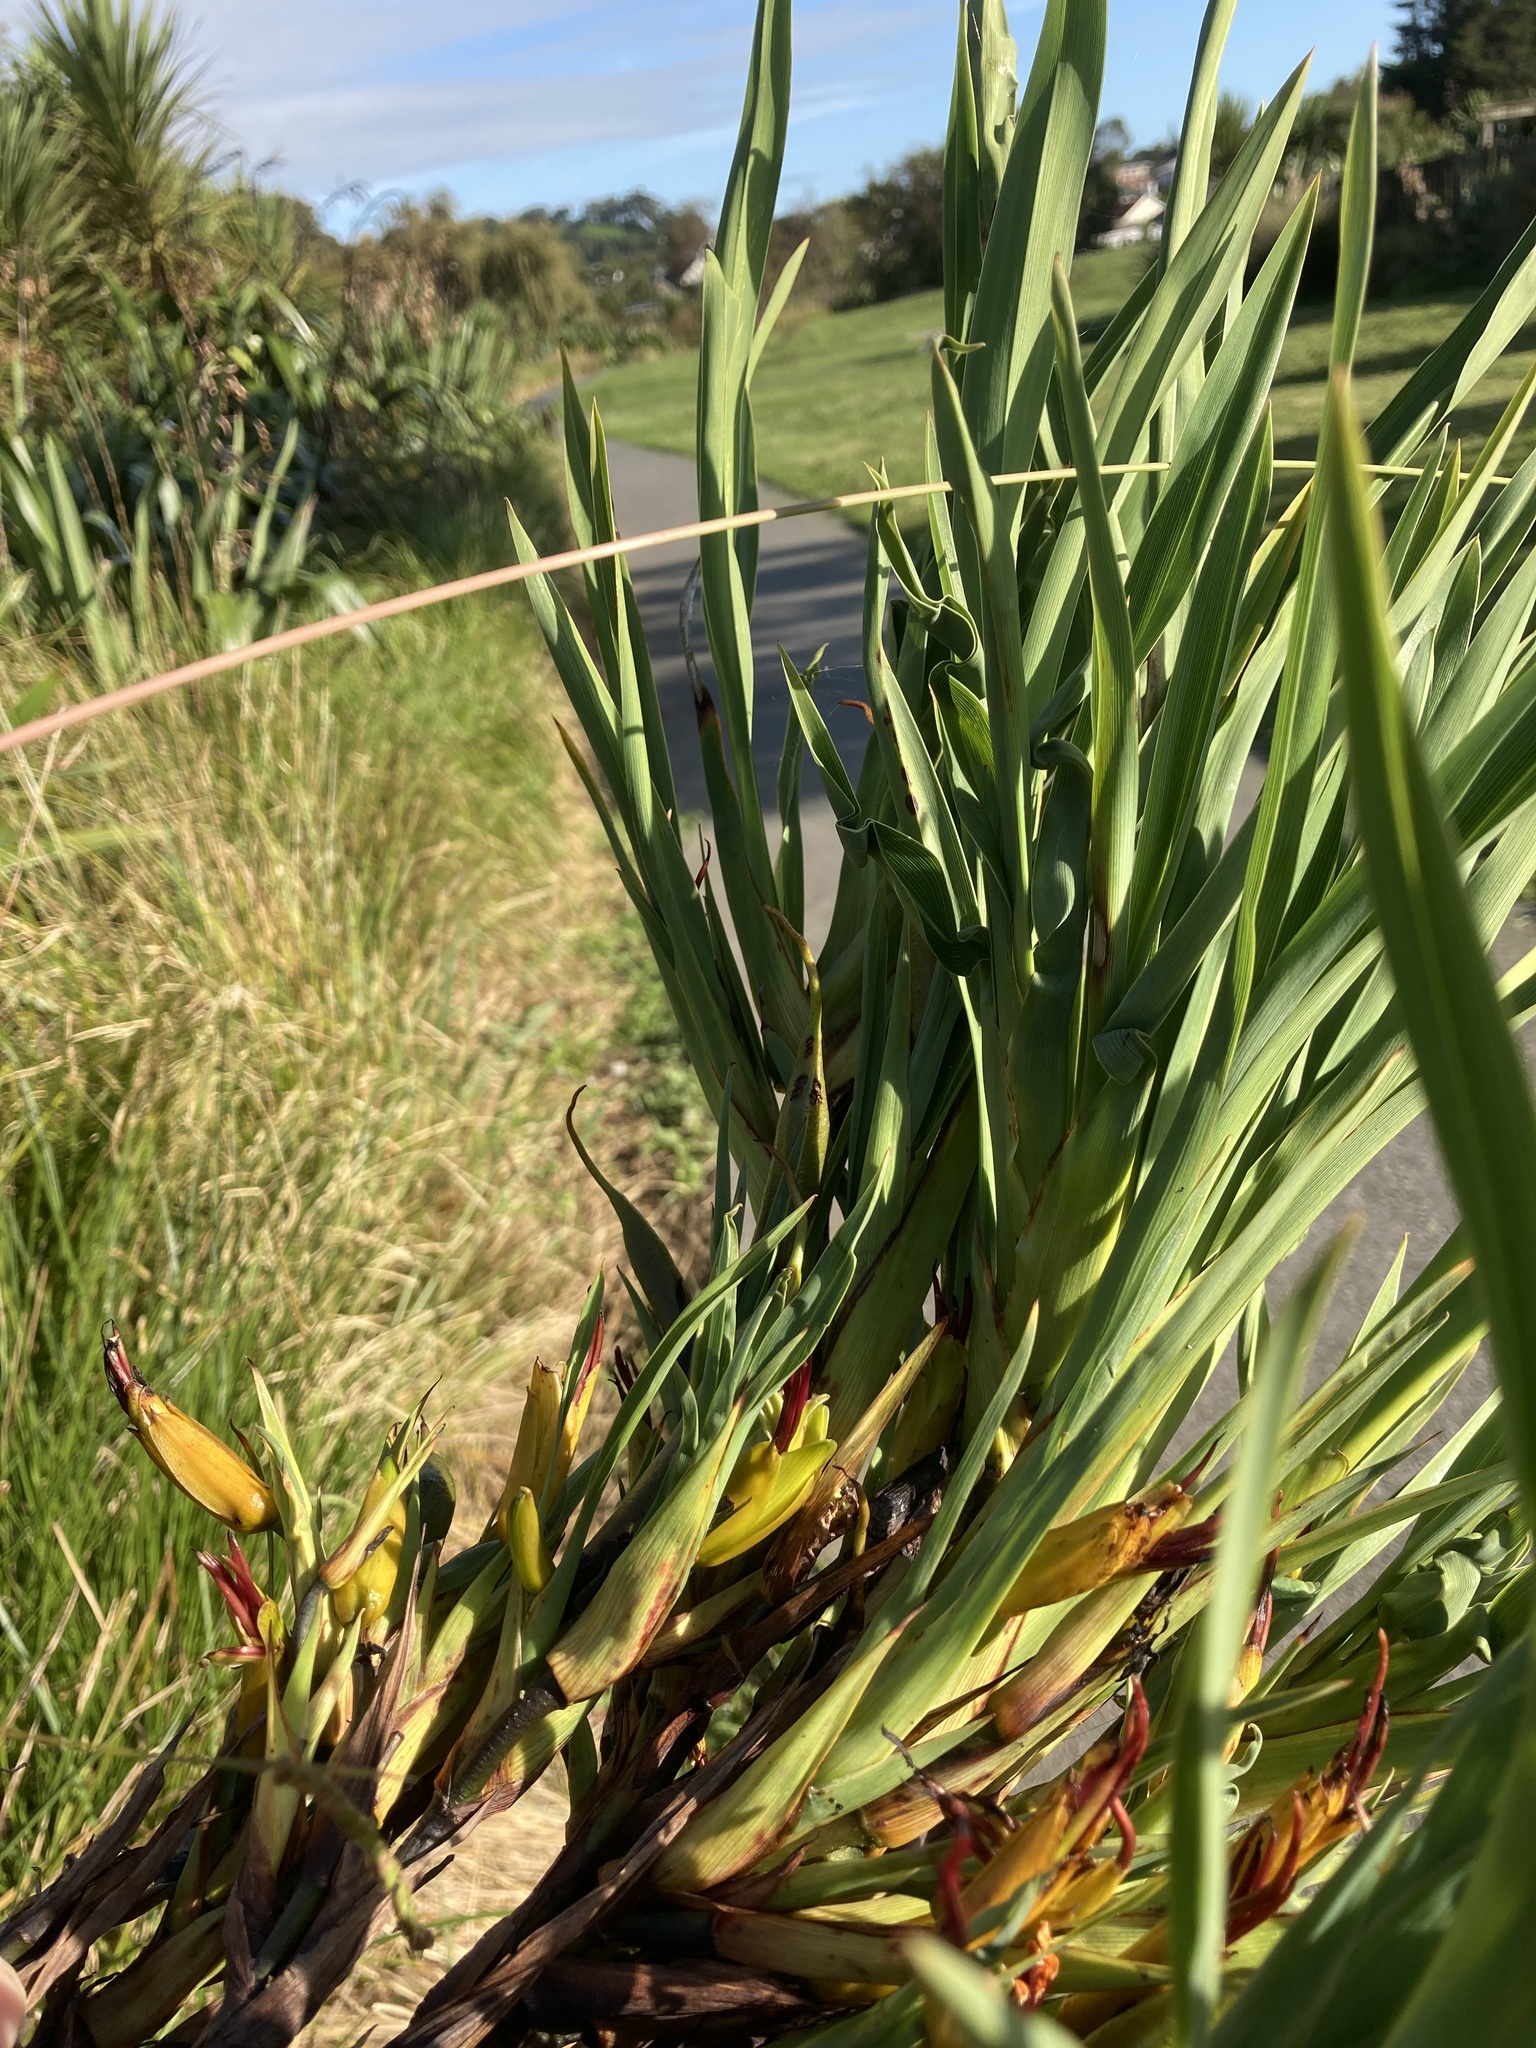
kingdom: Plantae
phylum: Tracheophyta
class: Liliopsida
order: Asparagales
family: Asphodelaceae
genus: Phormium
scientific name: Phormium colensoi
